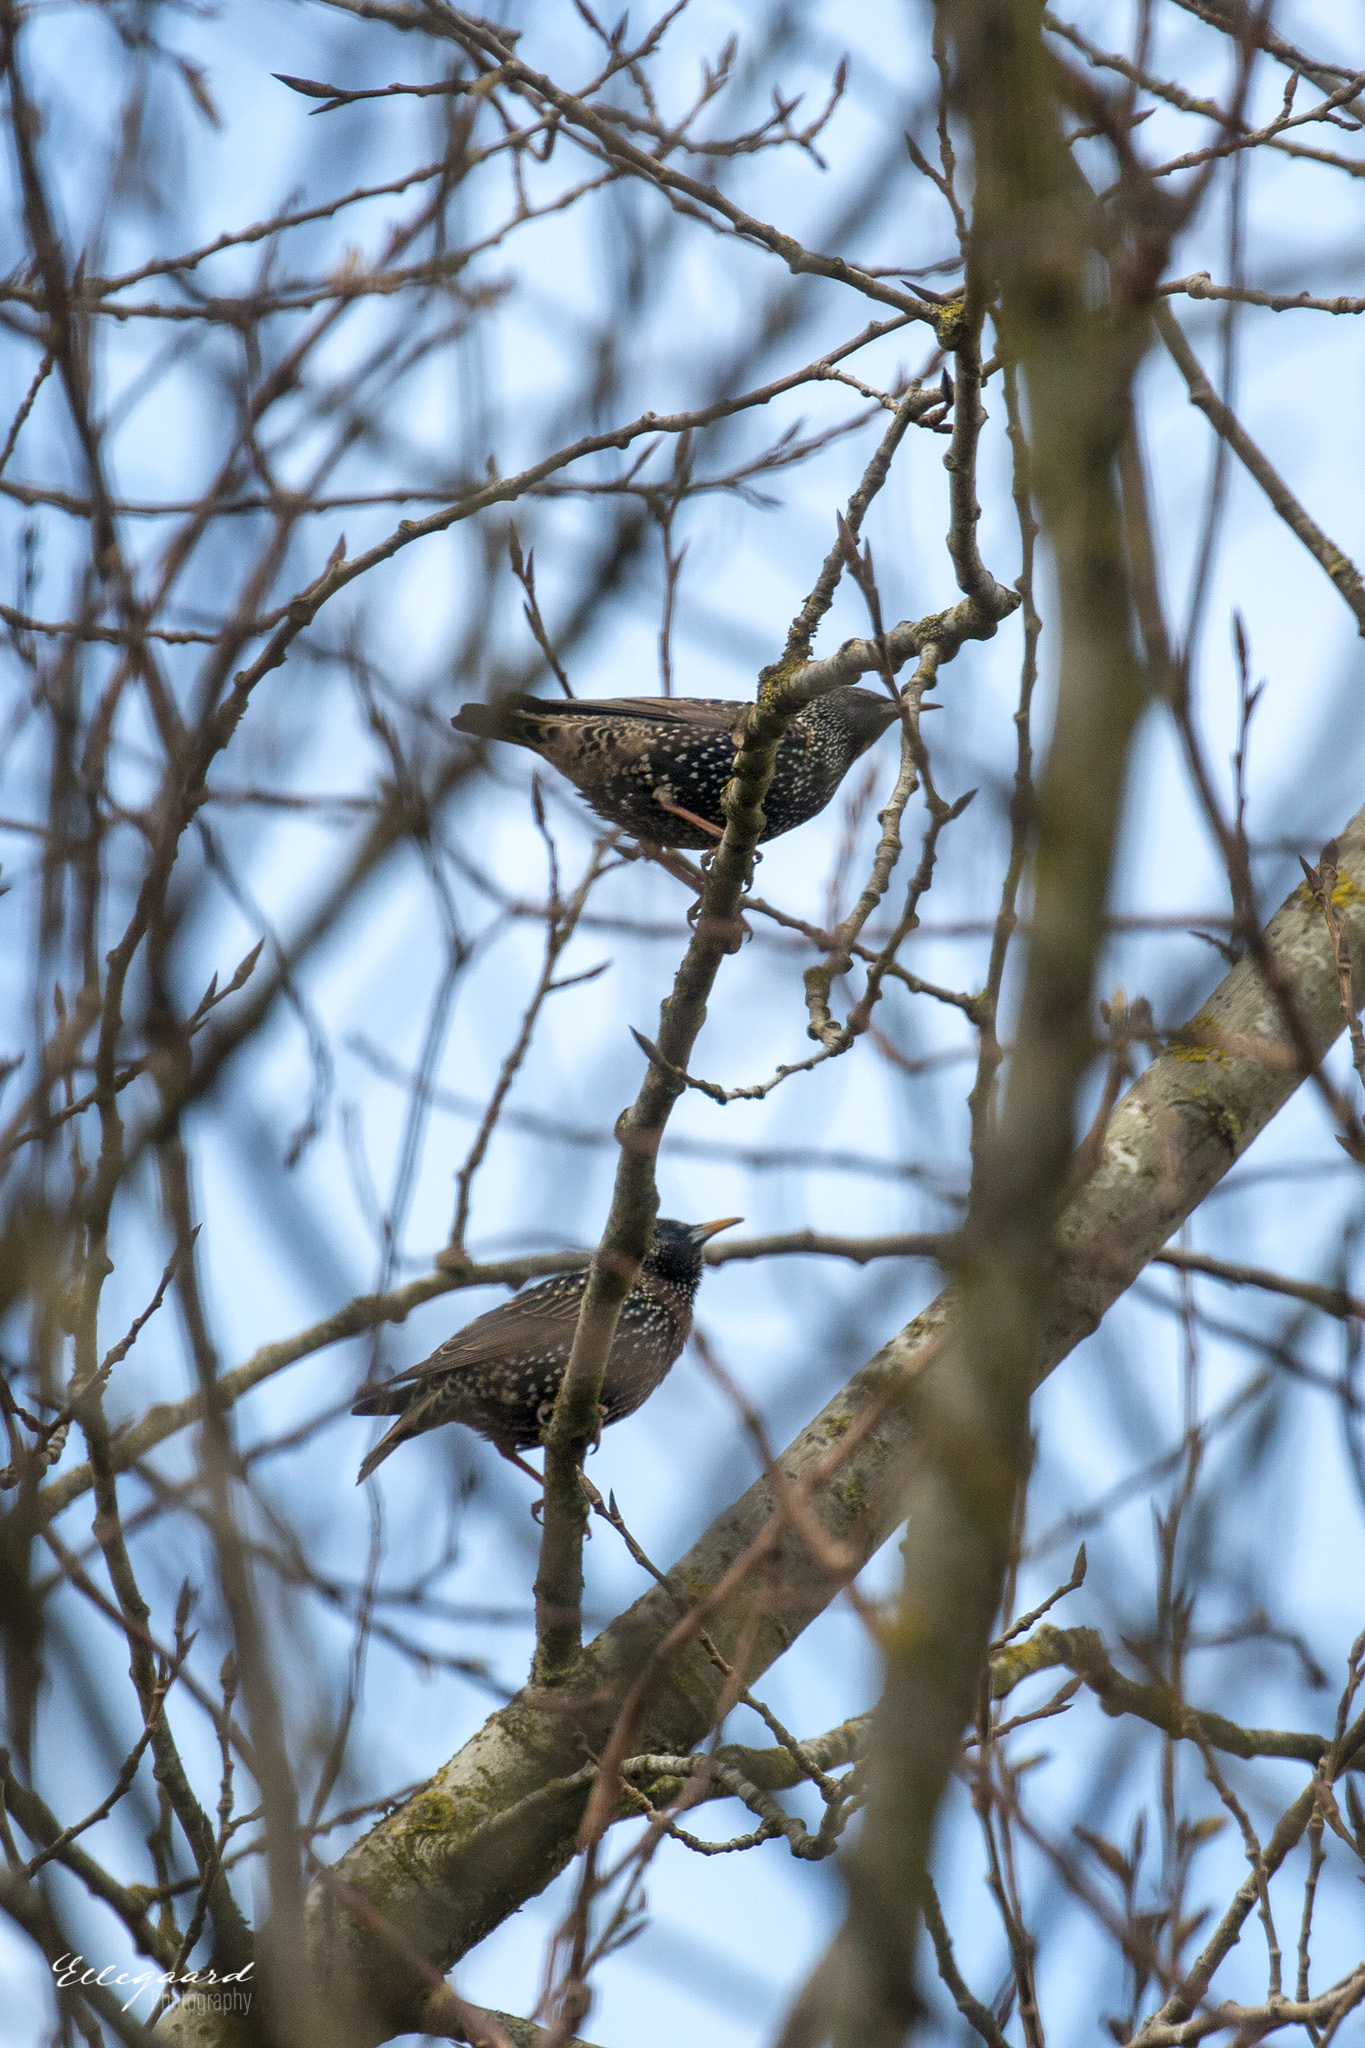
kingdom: Animalia
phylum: Chordata
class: Aves
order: Passeriformes
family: Sturnidae
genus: Sturnus
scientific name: Sturnus vulgaris
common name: Common starling
